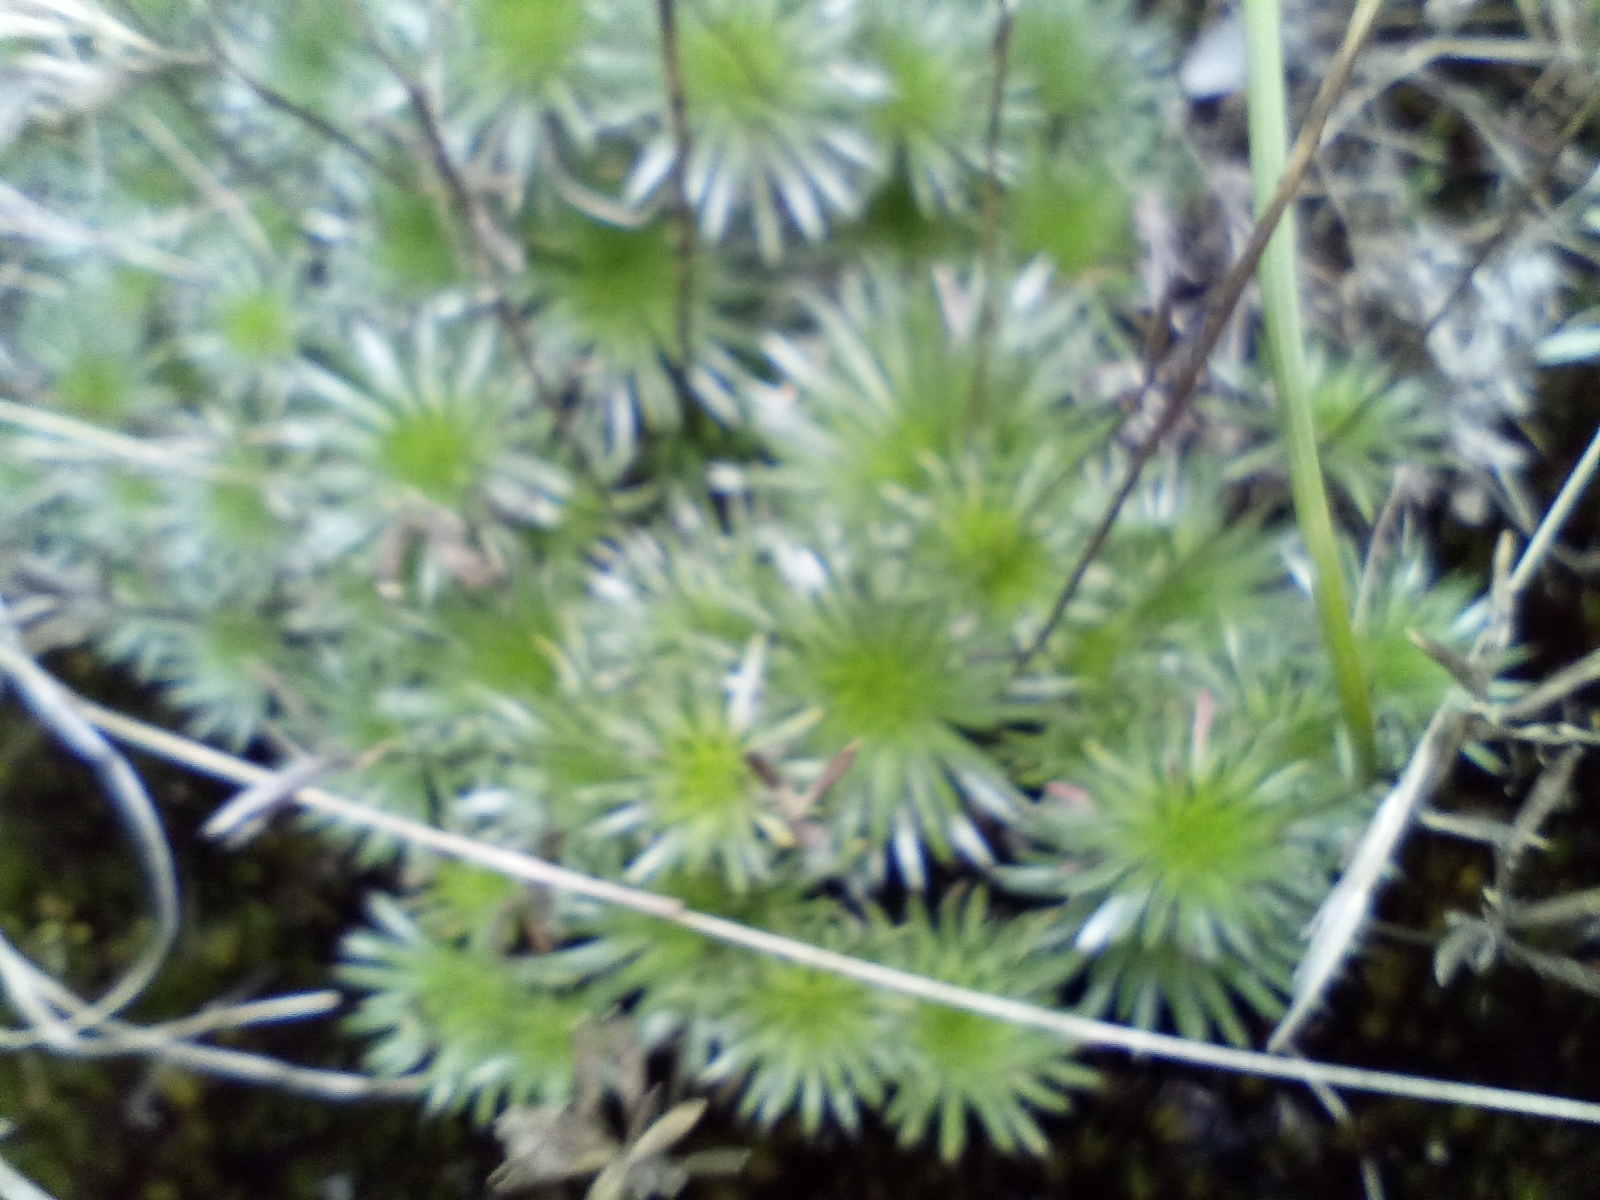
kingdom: Plantae
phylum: Tracheophyta
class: Magnoliopsida
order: Asterales
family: Stylidiaceae
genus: Stylidium
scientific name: Stylidium corymbosum
